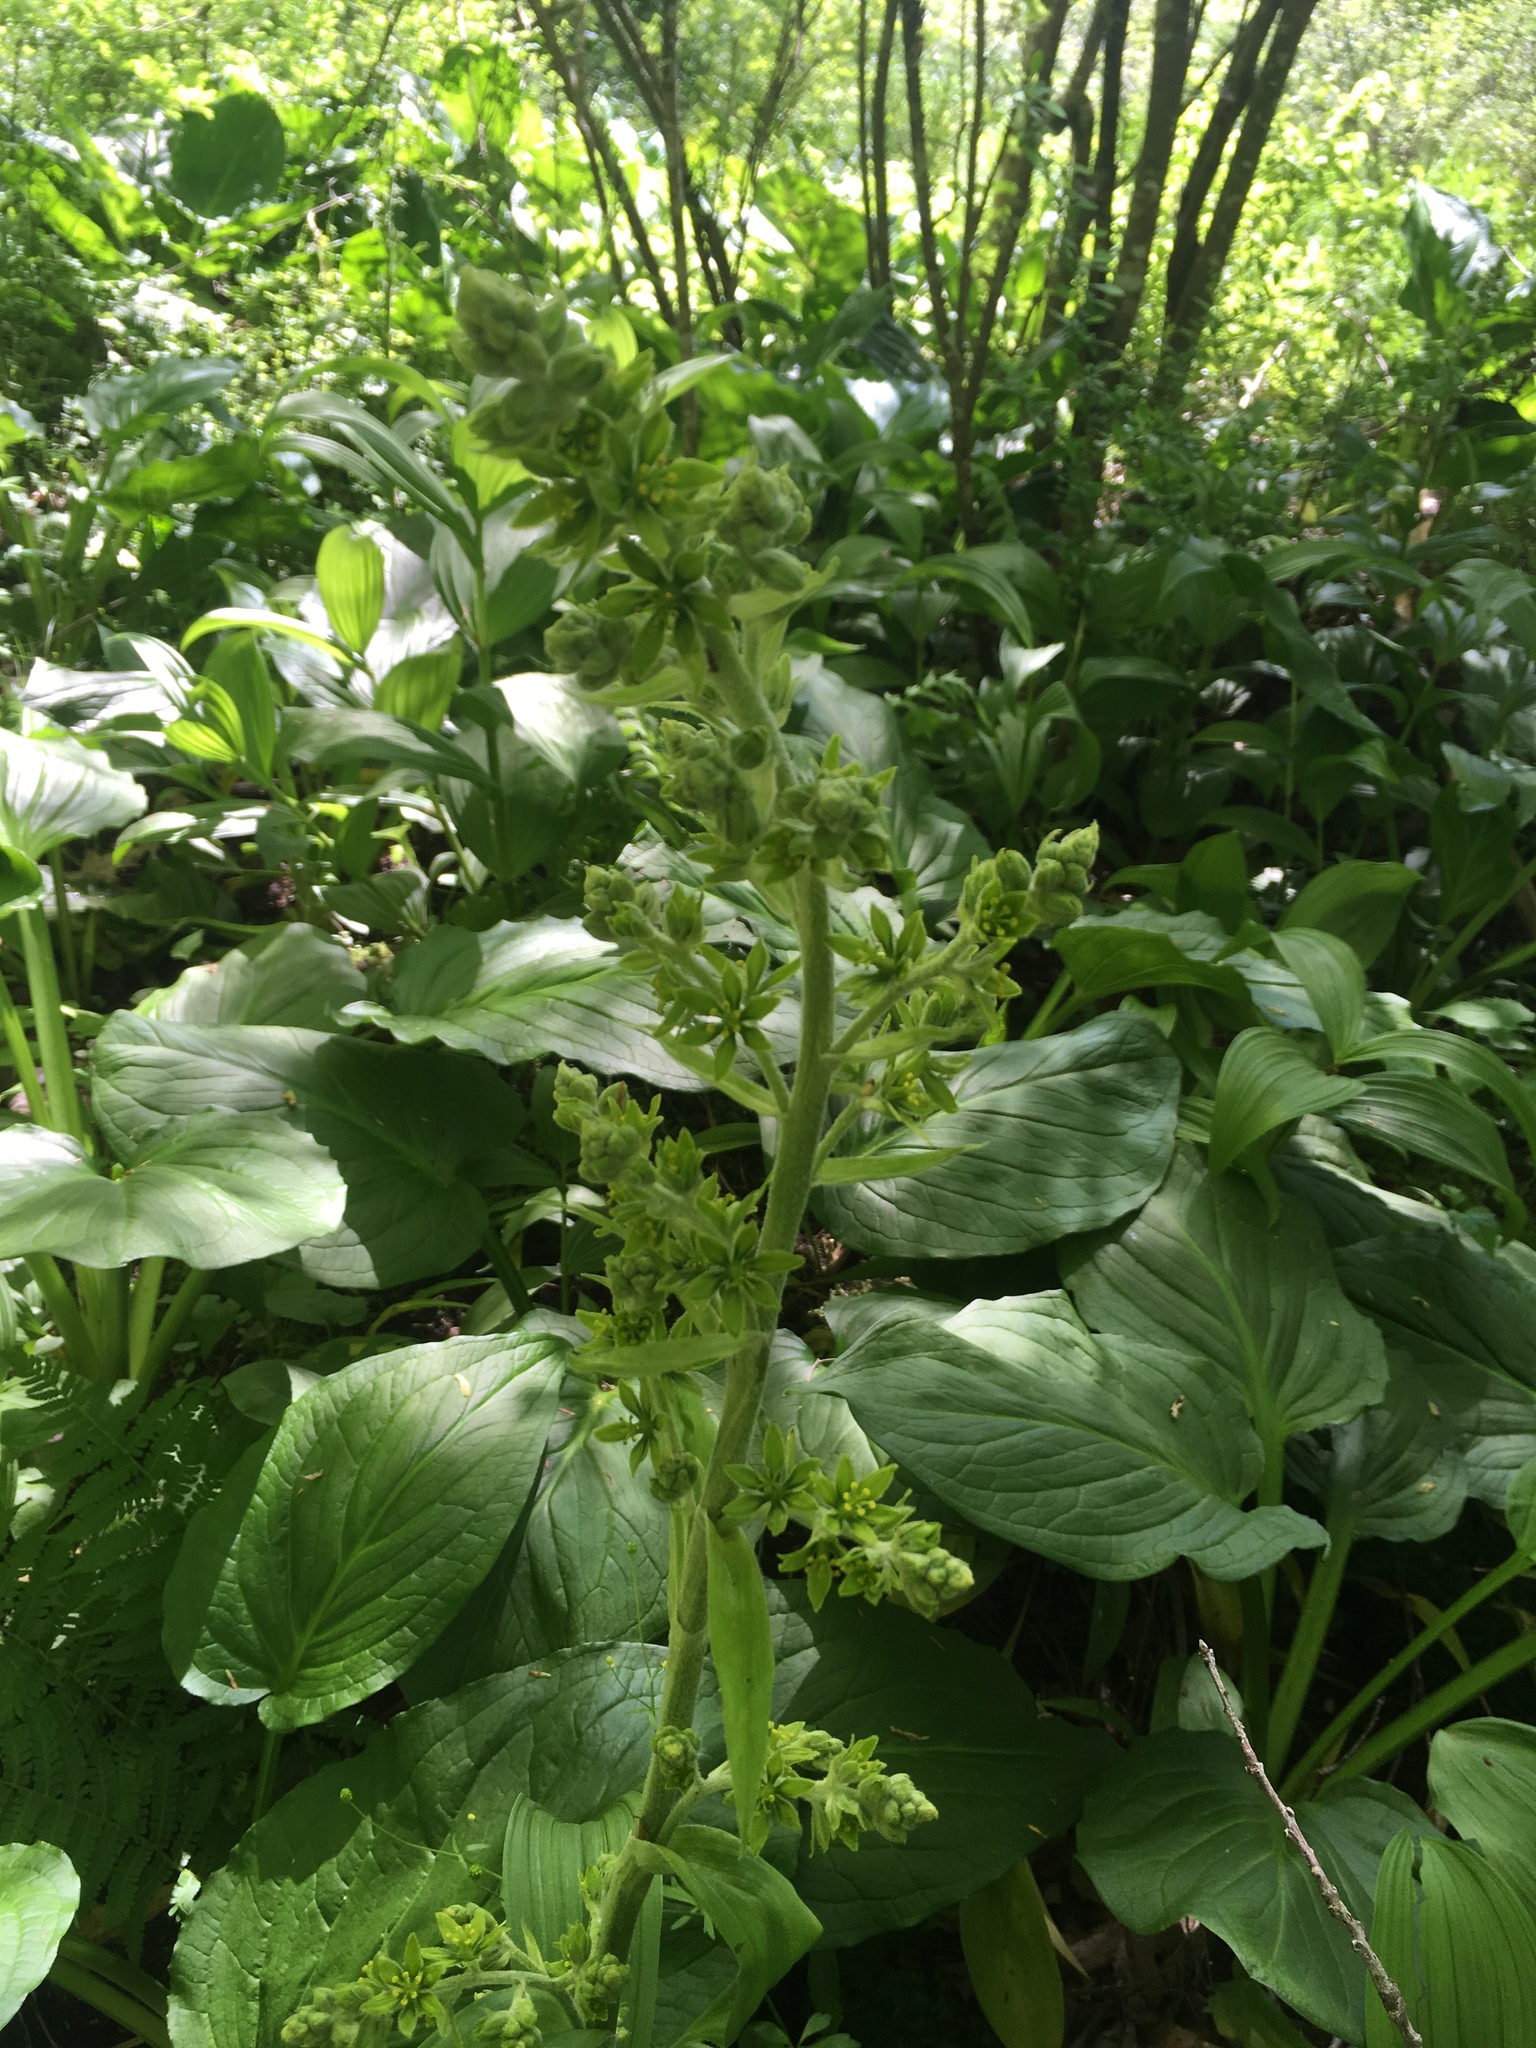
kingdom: Plantae
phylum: Tracheophyta
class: Liliopsida
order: Liliales
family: Melanthiaceae
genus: Veratrum
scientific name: Veratrum viride
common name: American false hellebore
